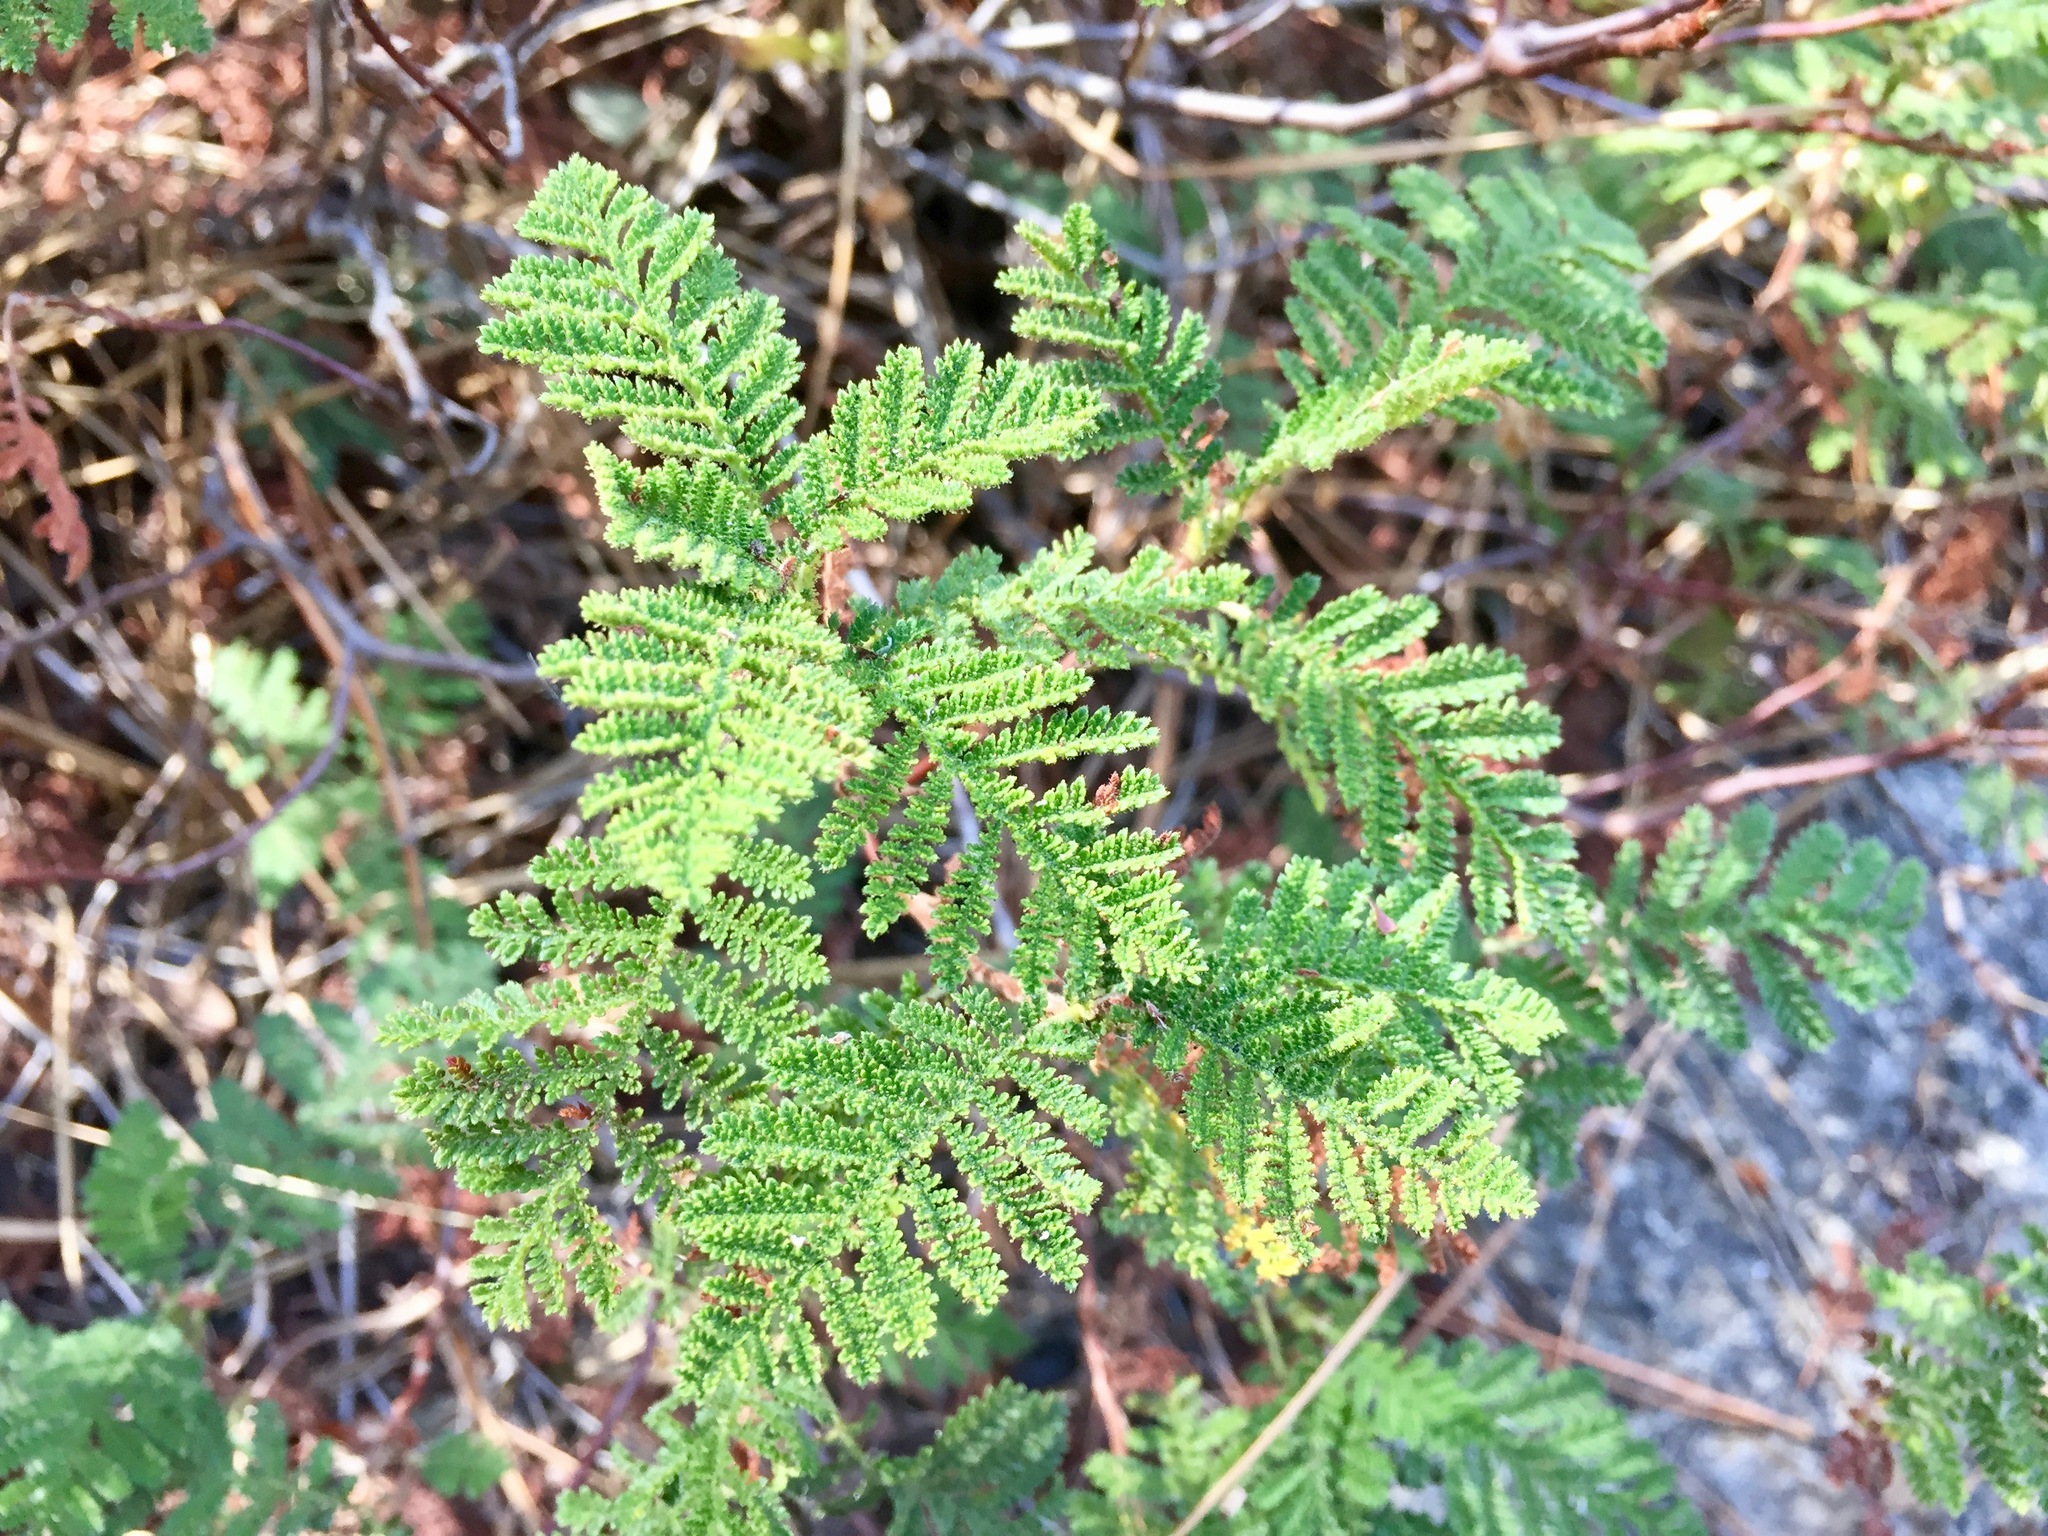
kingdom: Plantae
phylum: Tracheophyta
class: Magnoliopsida
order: Rosales
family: Rosaceae
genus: Chamaebatia
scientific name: Chamaebatia foliolosa
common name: Mountain misery
